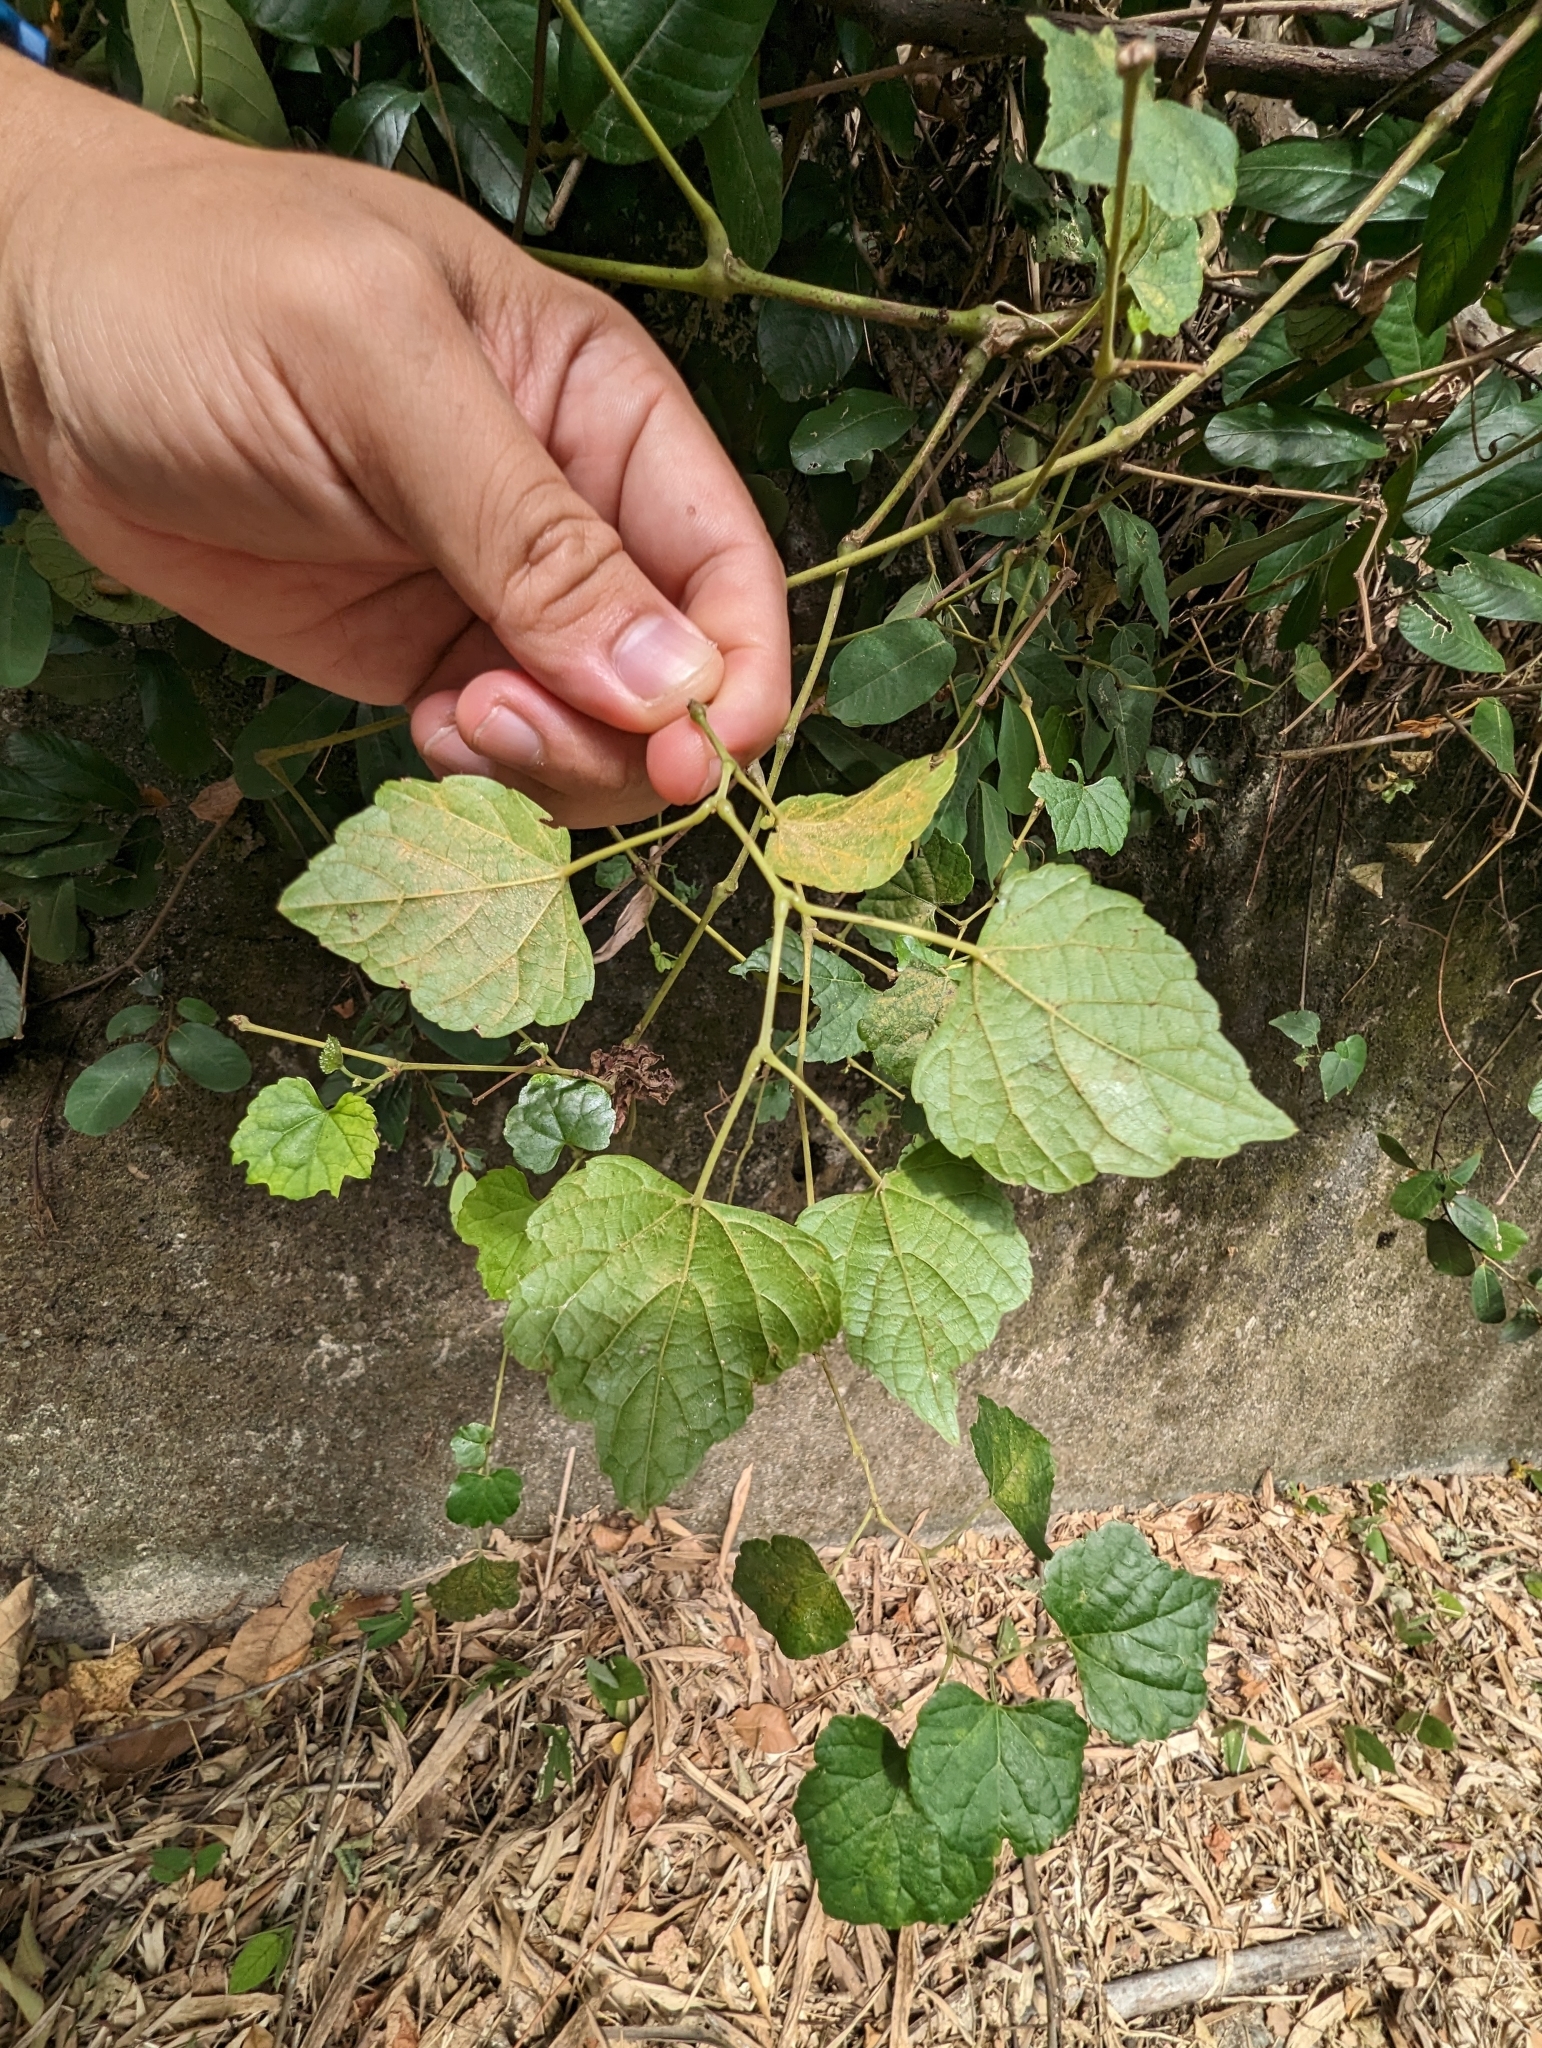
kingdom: Plantae
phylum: Tracheophyta
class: Magnoliopsida
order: Vitales
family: Vitaceae
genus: Ampelopsis
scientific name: Ampelopsis glandulosa
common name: Amur peppervine
